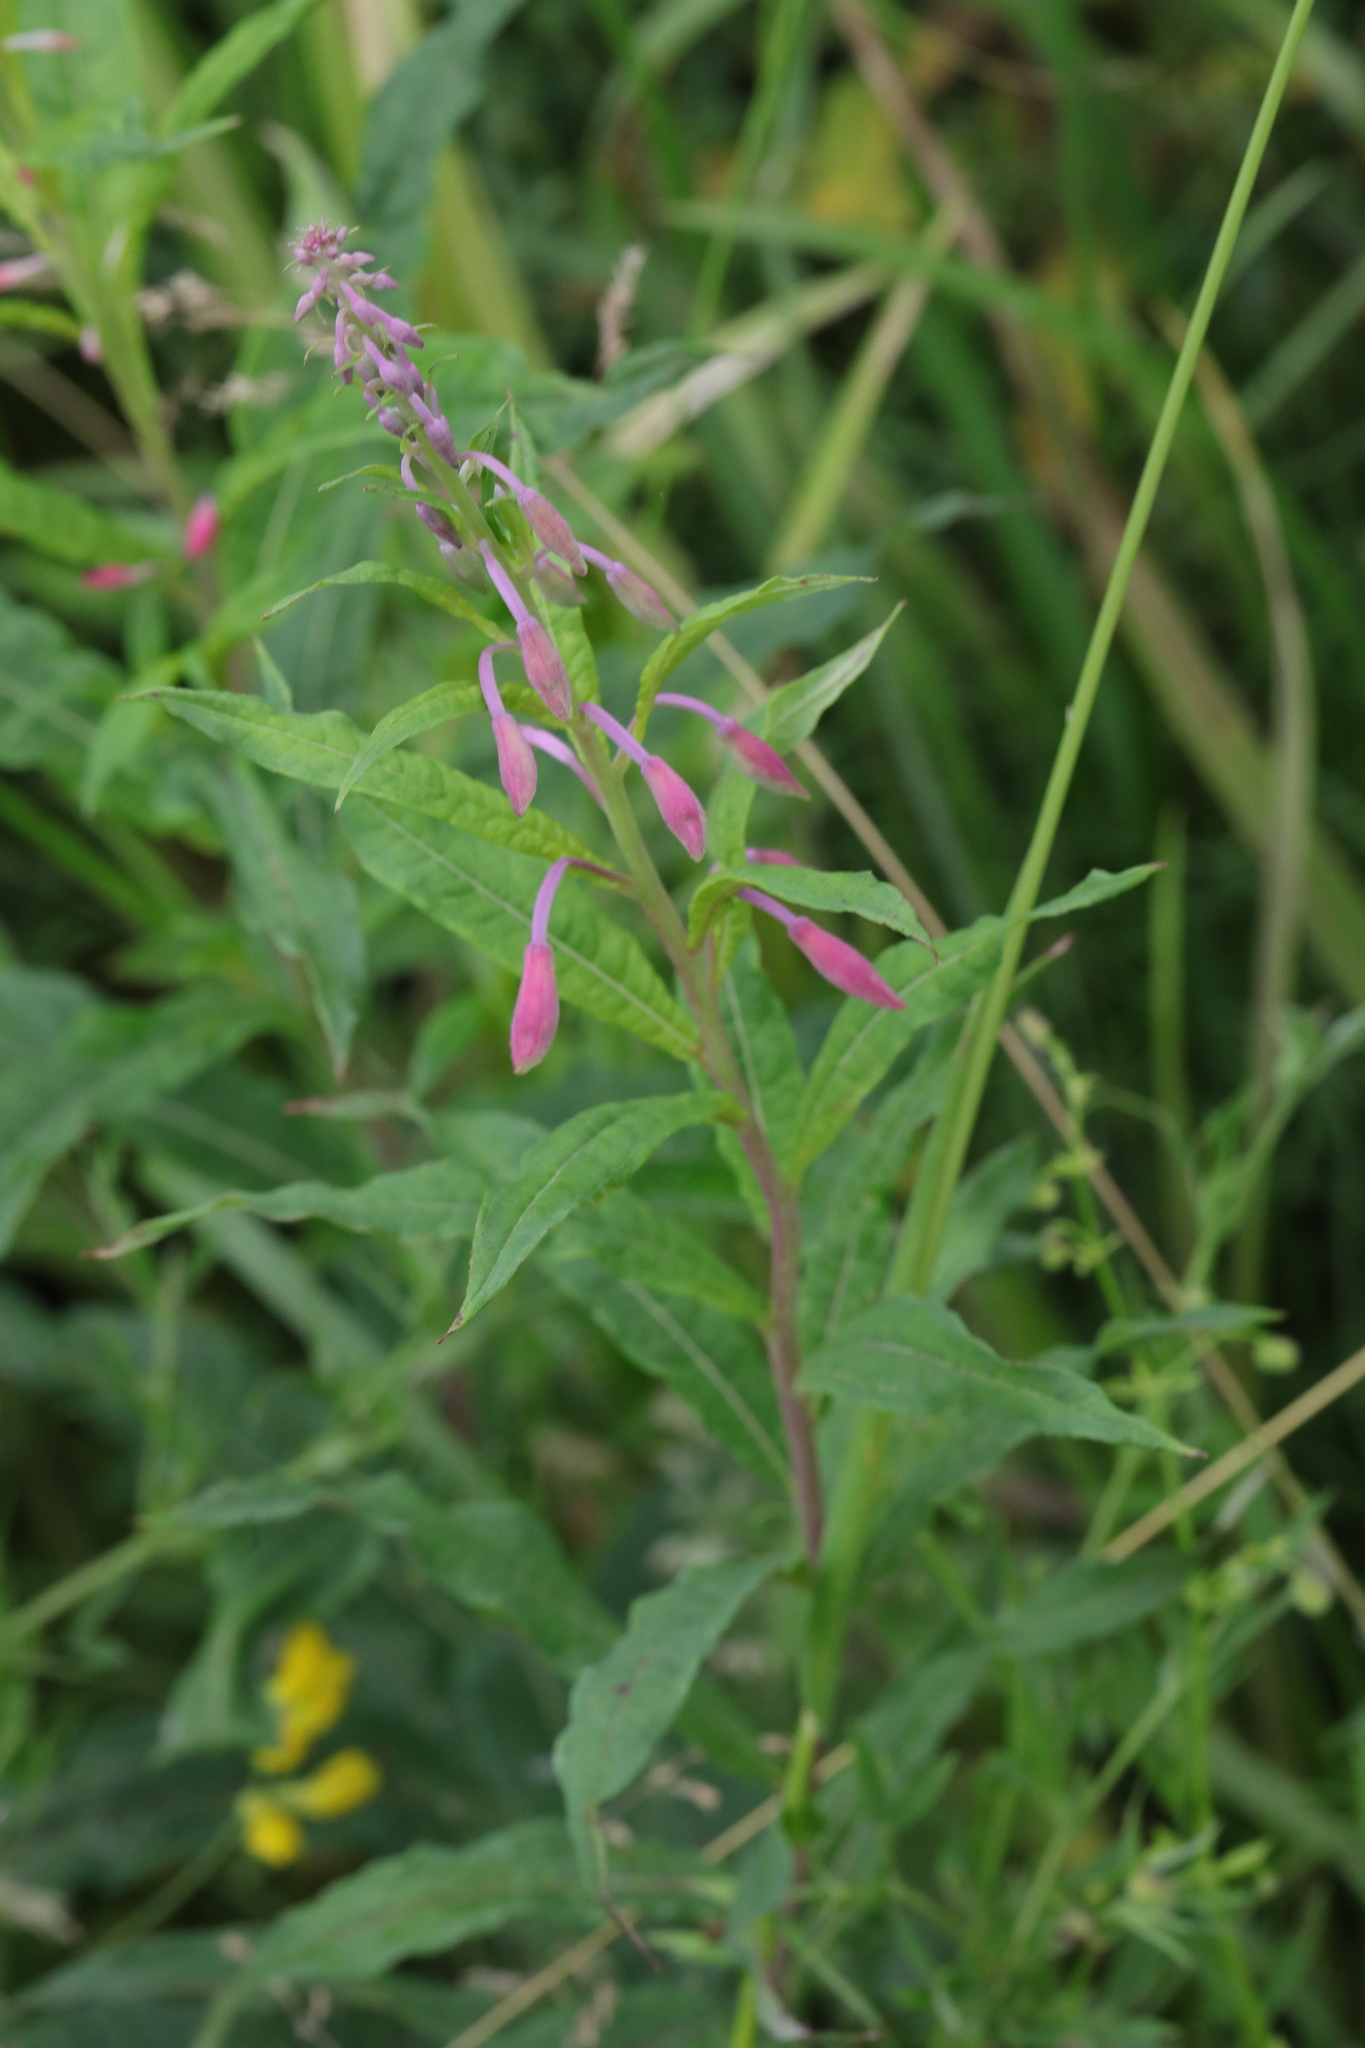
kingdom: Plantae
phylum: Tracheophyta
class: Magnoliopsida
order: Myrtales
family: Onagraceae
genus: Chamaenerion
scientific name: Chamaenerion angustifolium
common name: Fireweed
